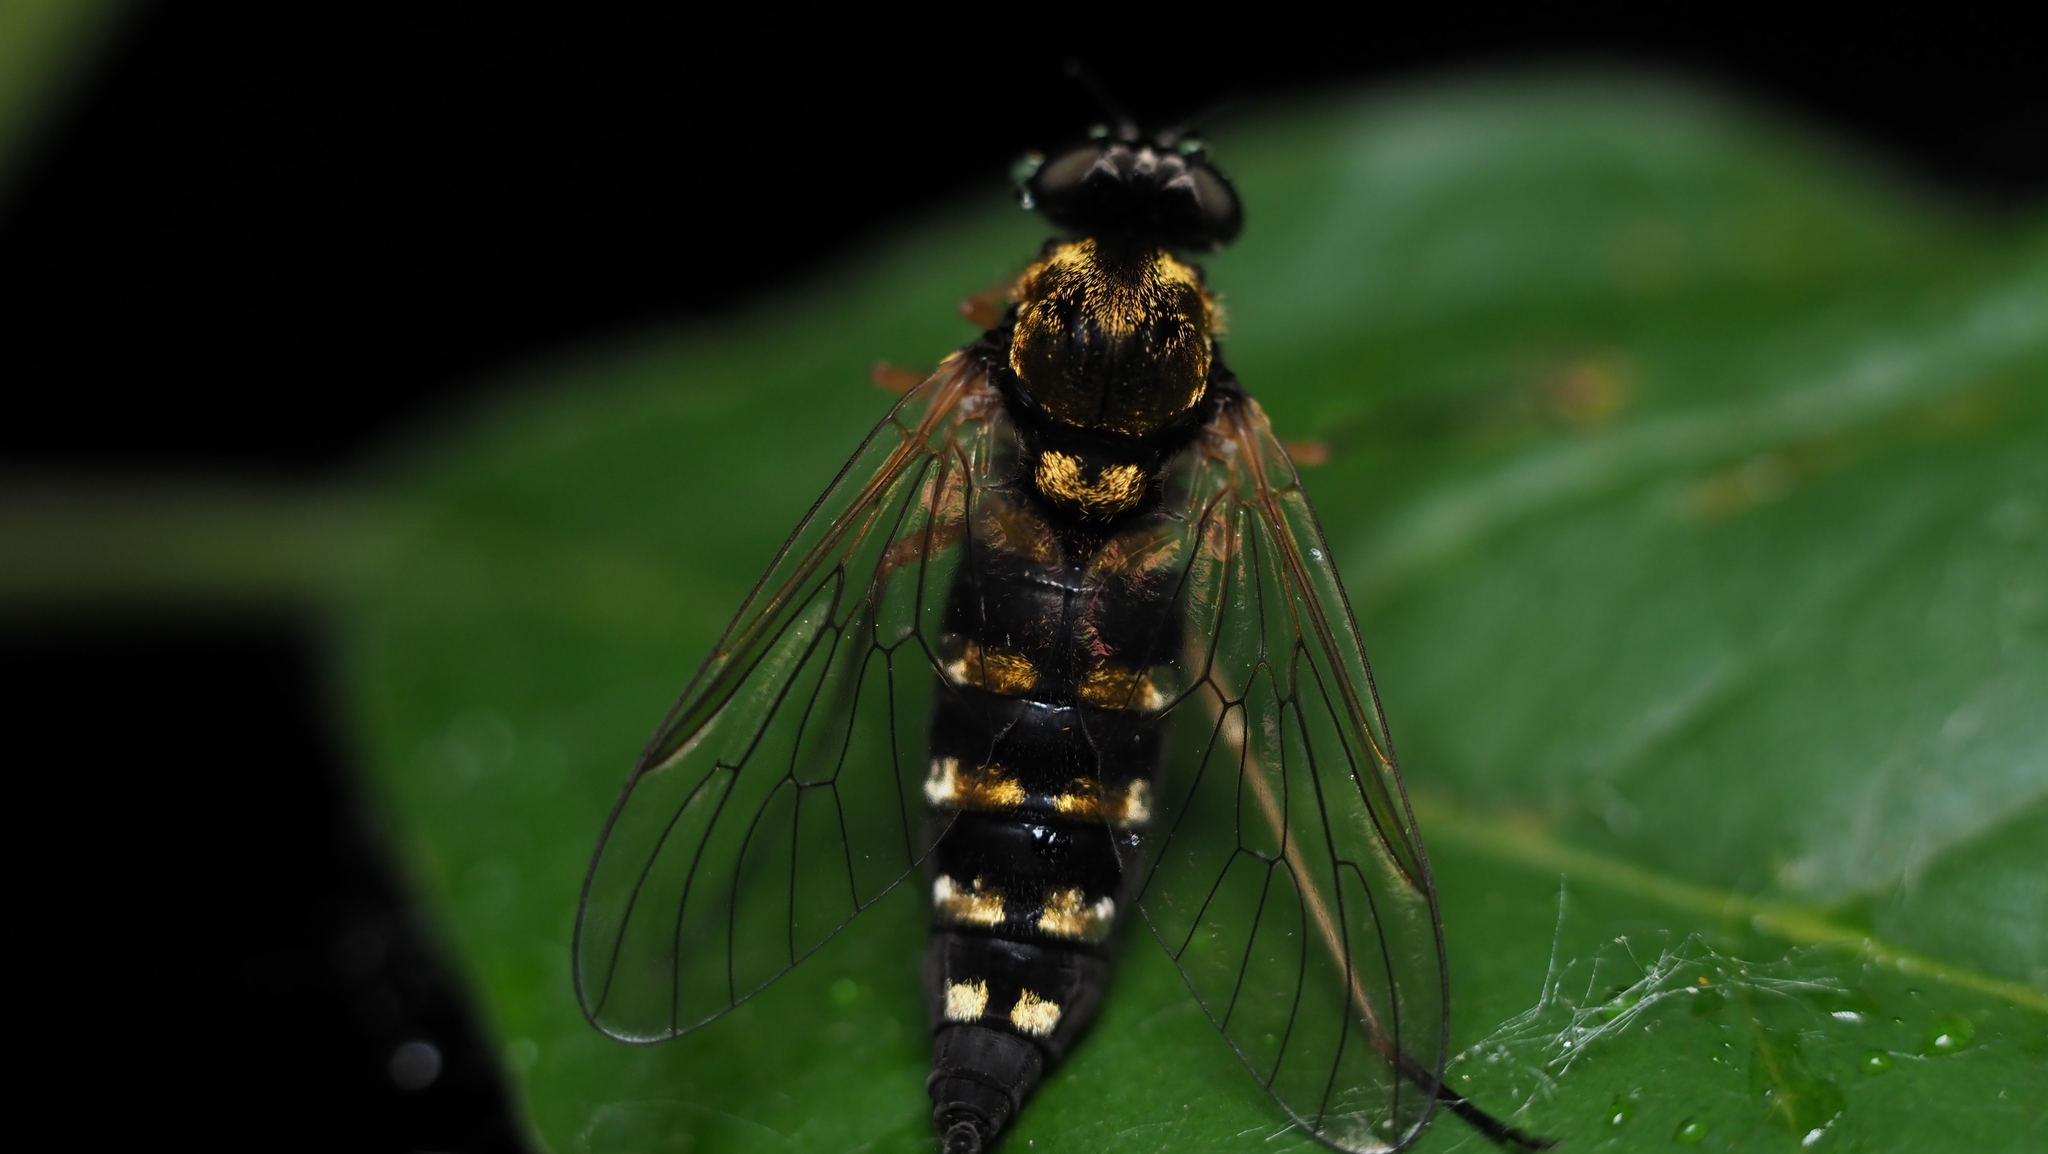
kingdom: Animalia
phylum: Arthropoda
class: Insecta
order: Diptera
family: Rhagionidae
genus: Chrysopilus
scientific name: Chrysopilus ornatus
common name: Ornate snipe fly
